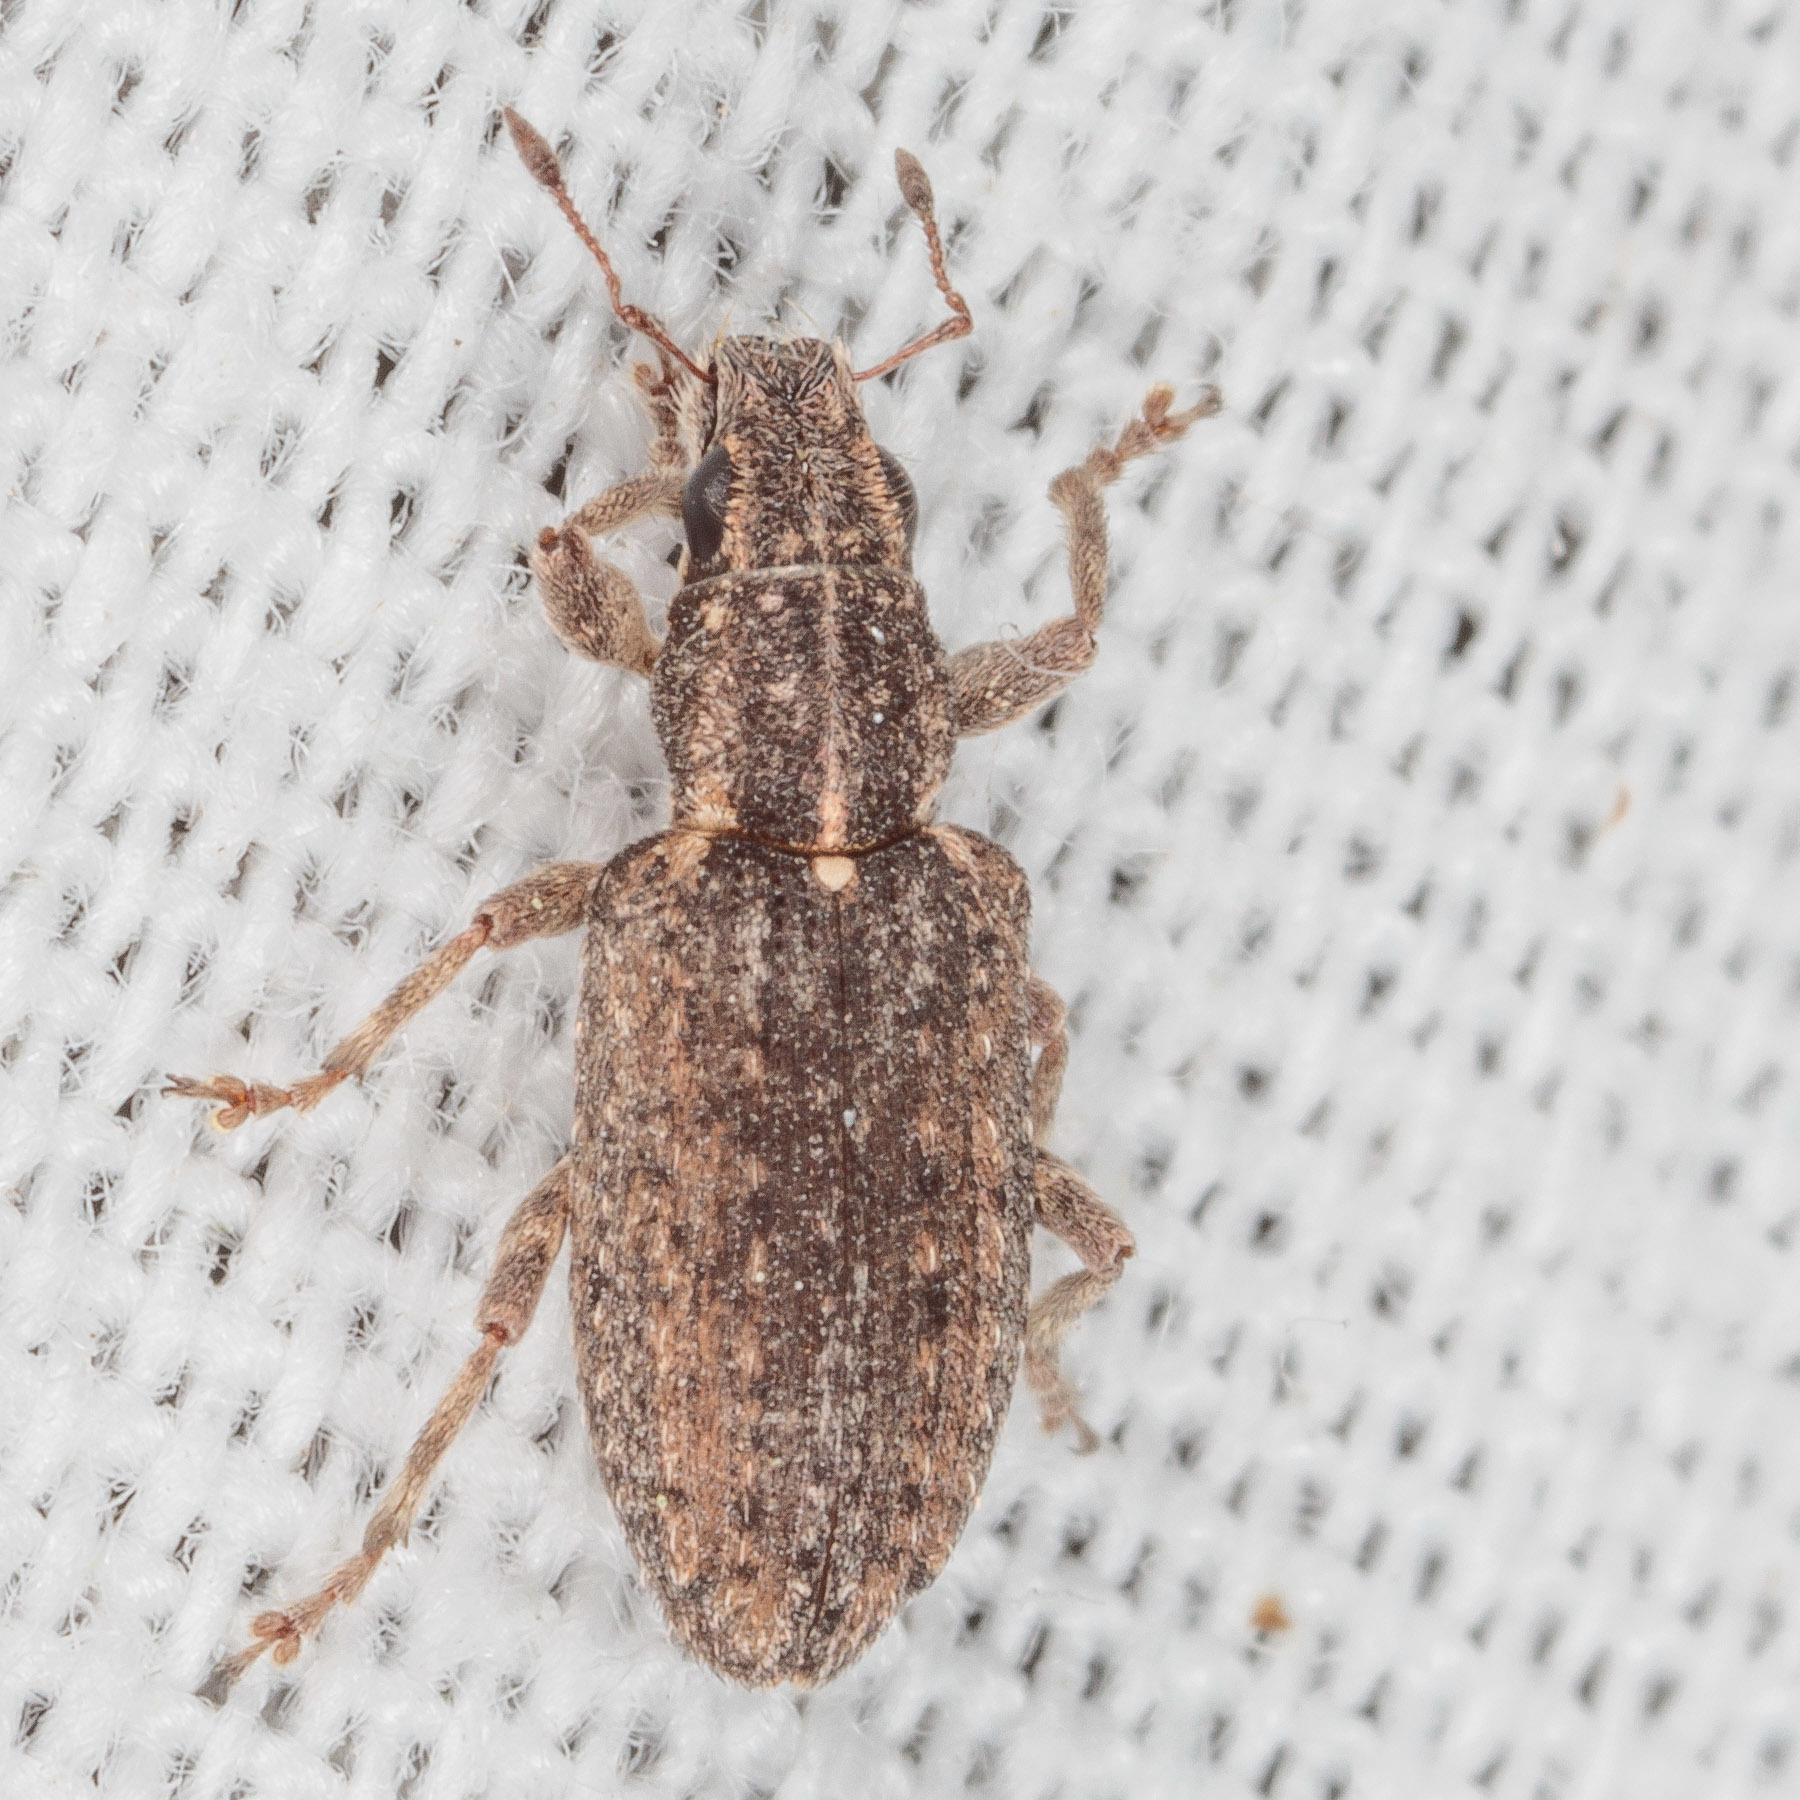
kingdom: Animalia
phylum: Arthropoda
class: Insecta
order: Coleoptera
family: Curculionidae
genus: Sitones
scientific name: Sitones californius
